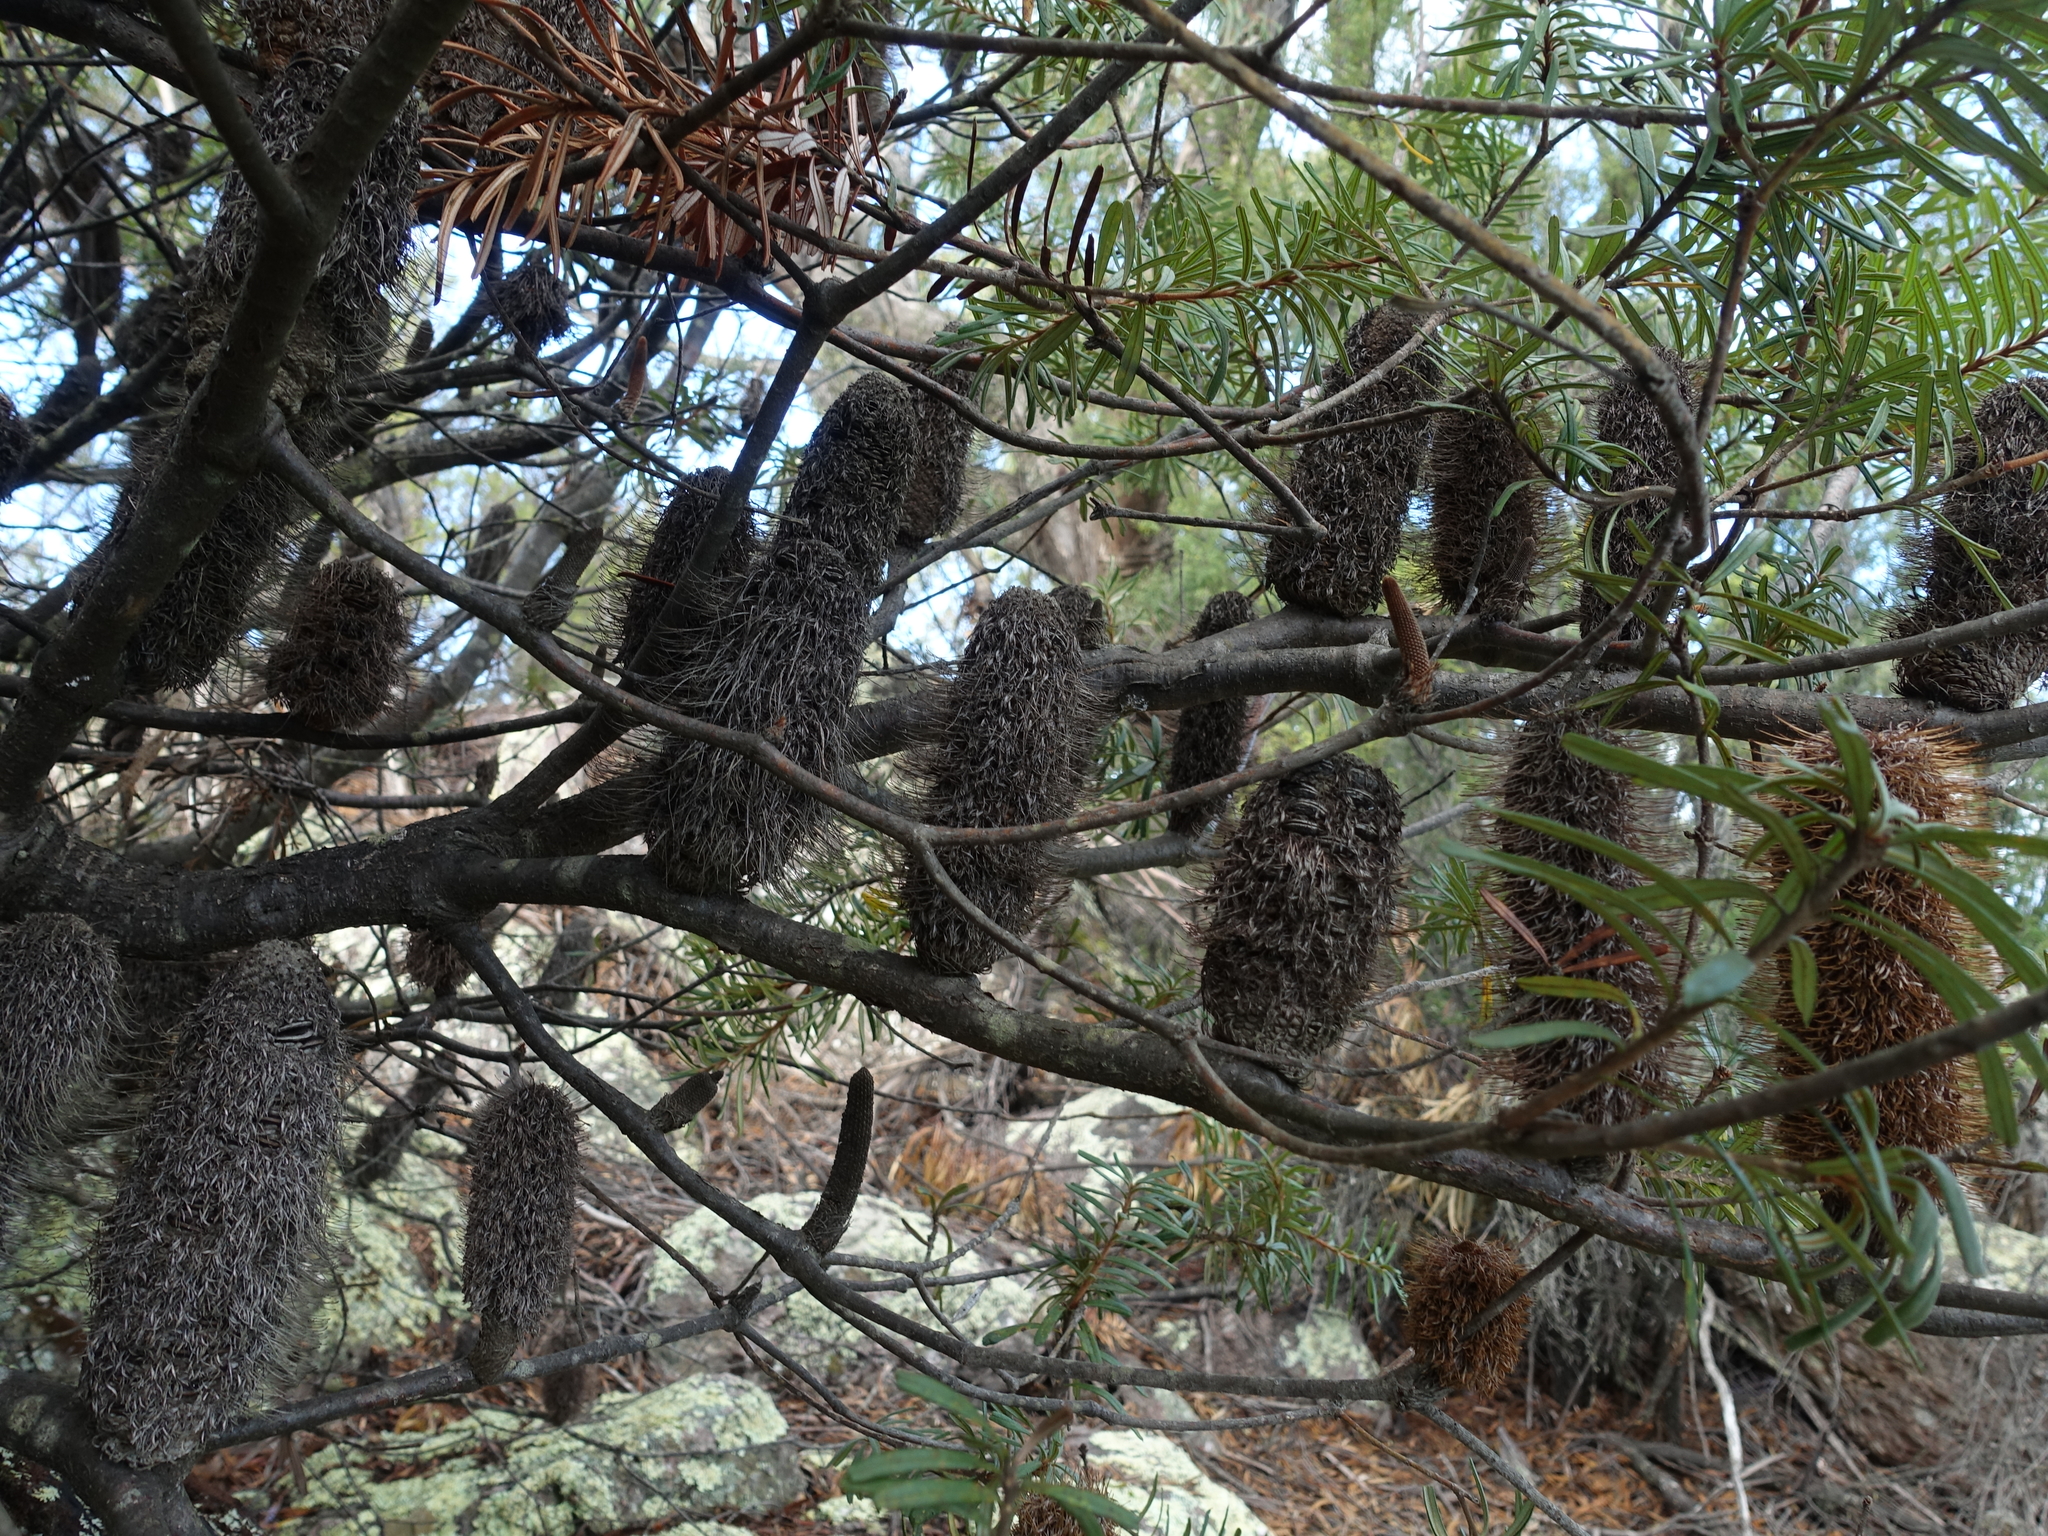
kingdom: Plantae
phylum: Tracheophyta
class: Magnoliopsida
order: Proteales
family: Proteaceae
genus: Banksia
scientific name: Banksia marginata
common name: Silver banksia
